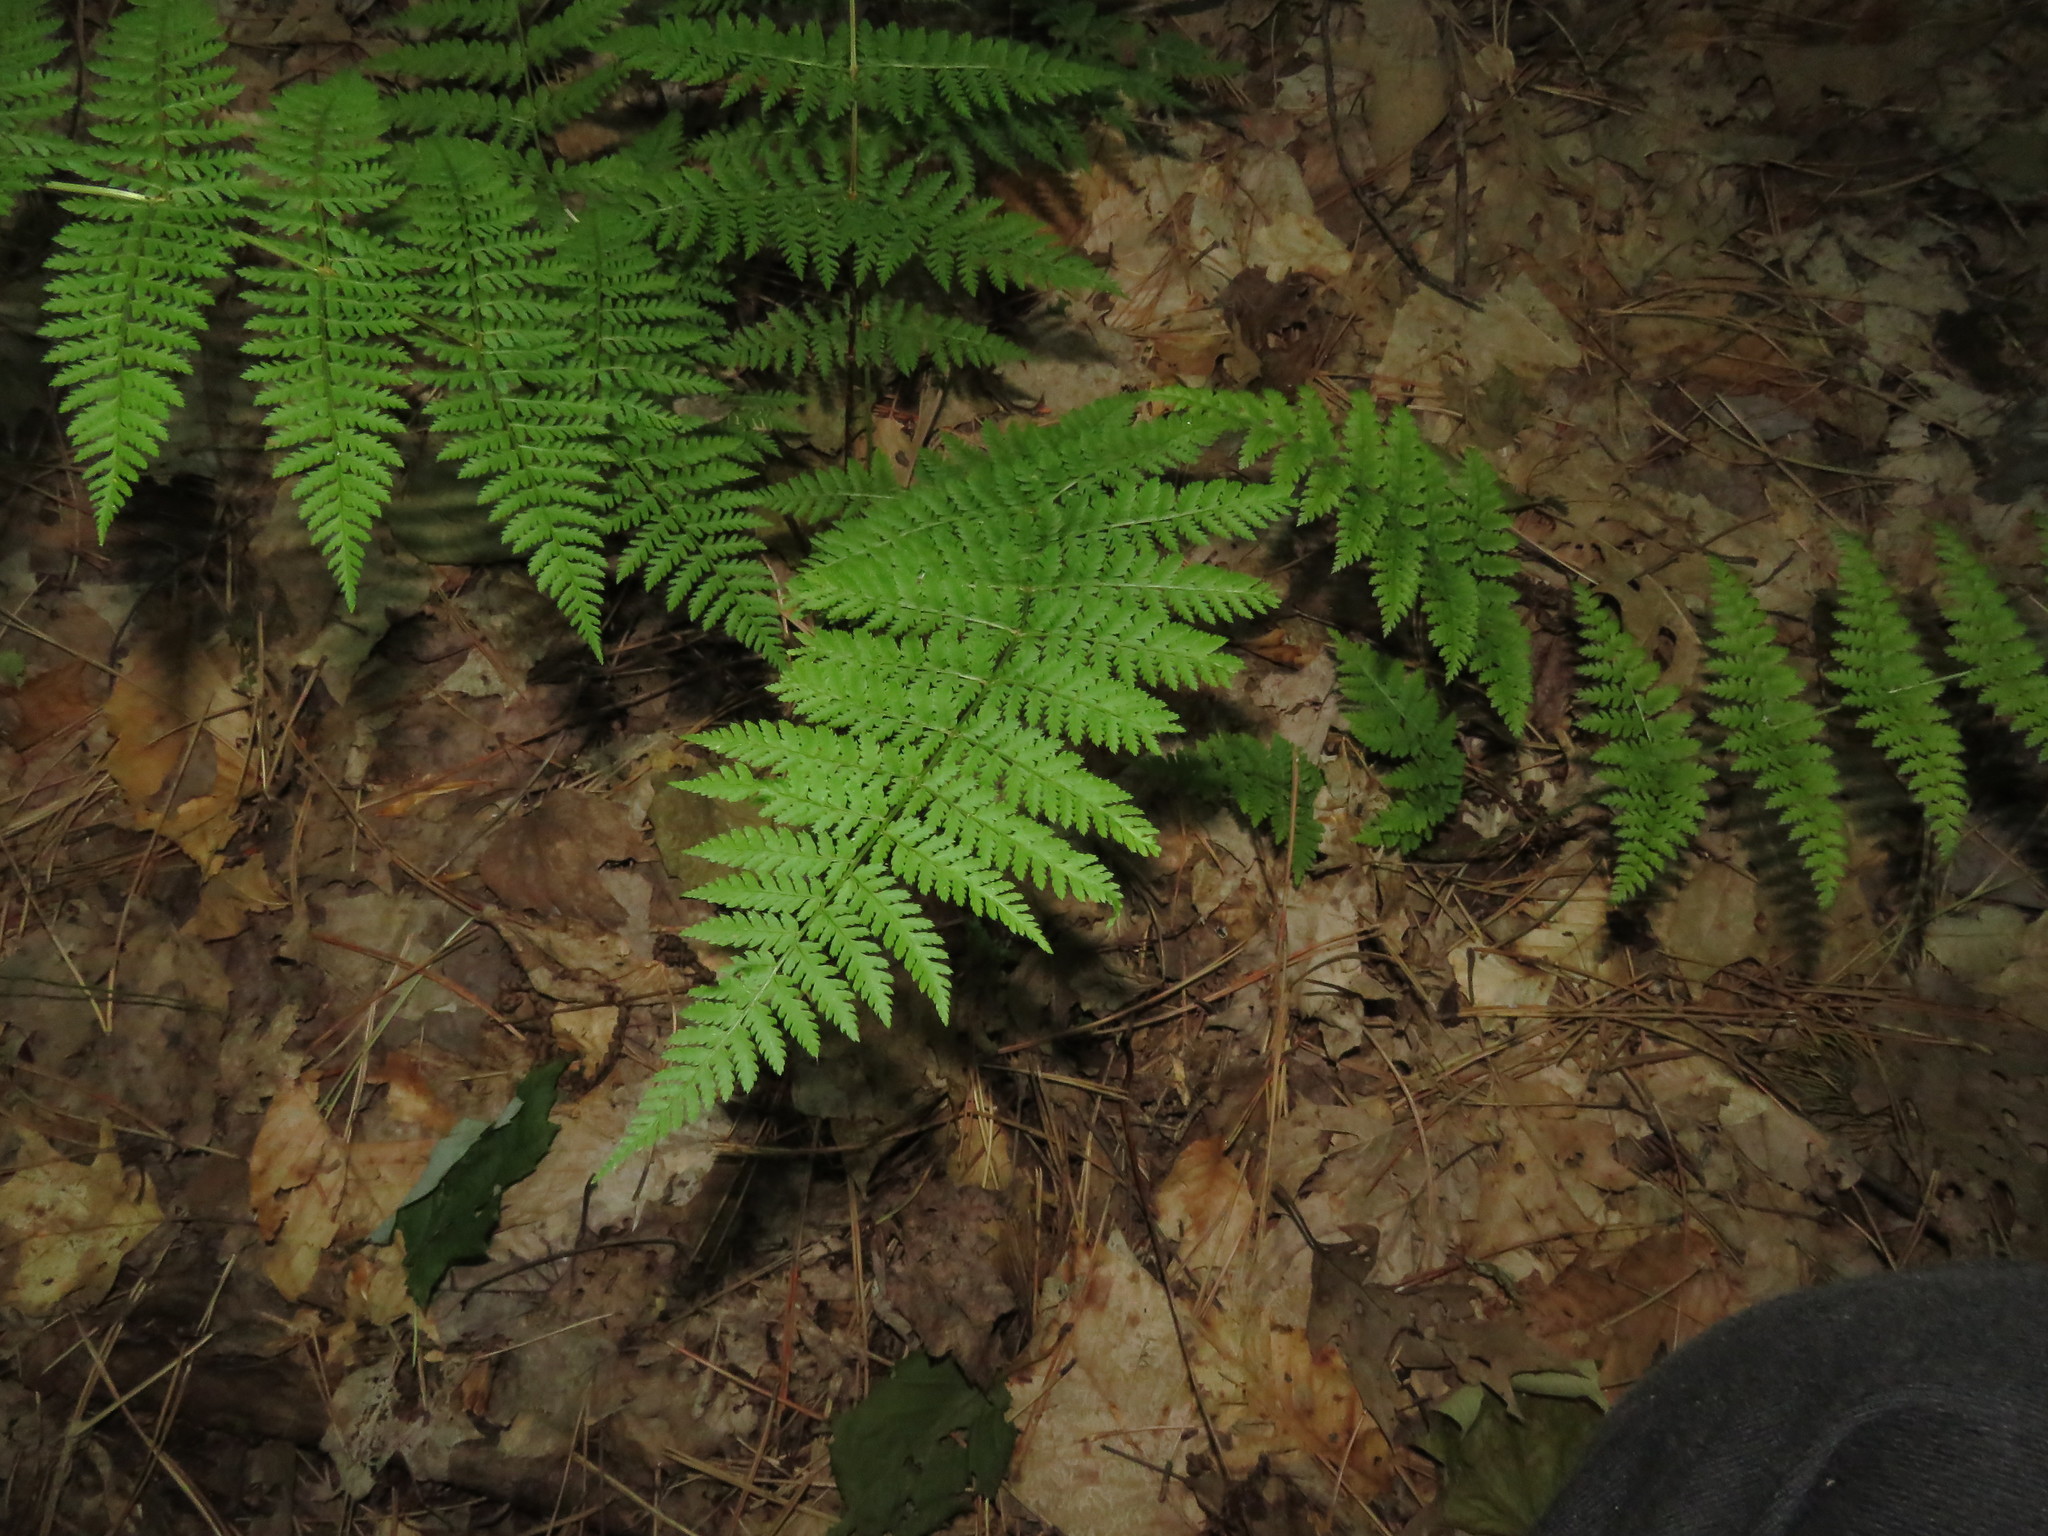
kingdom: Plantae
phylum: Tracheophyta
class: Polypodiopsida
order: Polypodiales
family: Dryopteridaceae
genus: Dryopteris
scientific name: Dryopteris intermedia
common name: Evergreen wood fern
